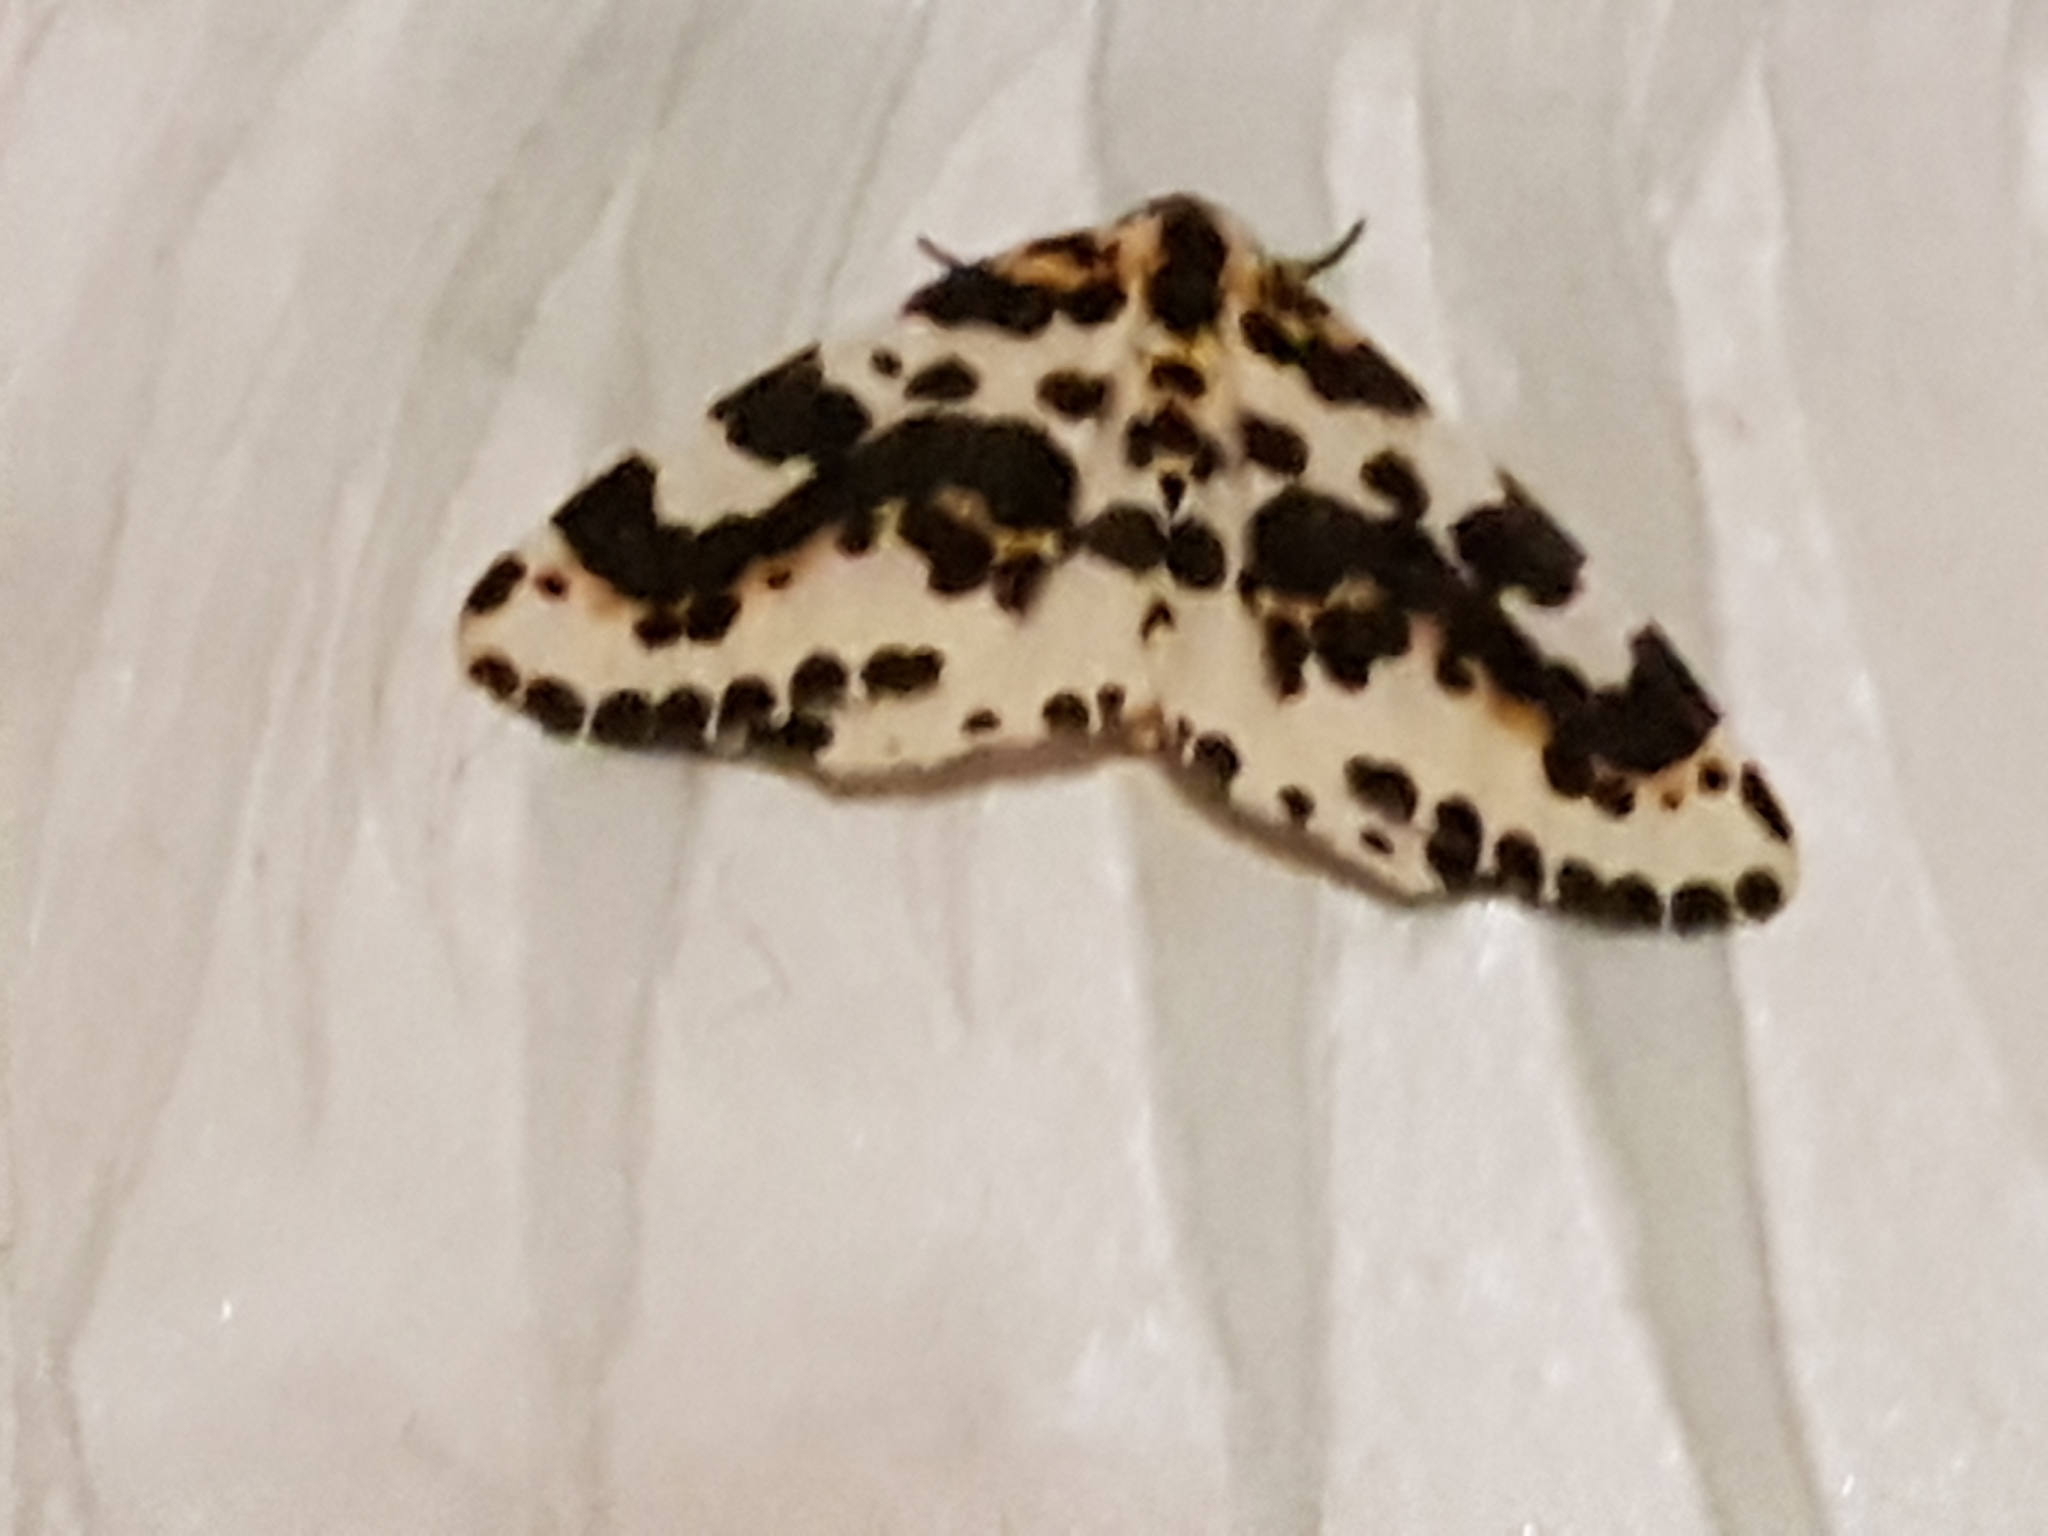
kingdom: Animalia
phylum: Arthropoda
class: Insecta
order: Lepidoptera
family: Geometridae
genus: Abraxas
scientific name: Abraxas grossulariata
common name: Magpie
